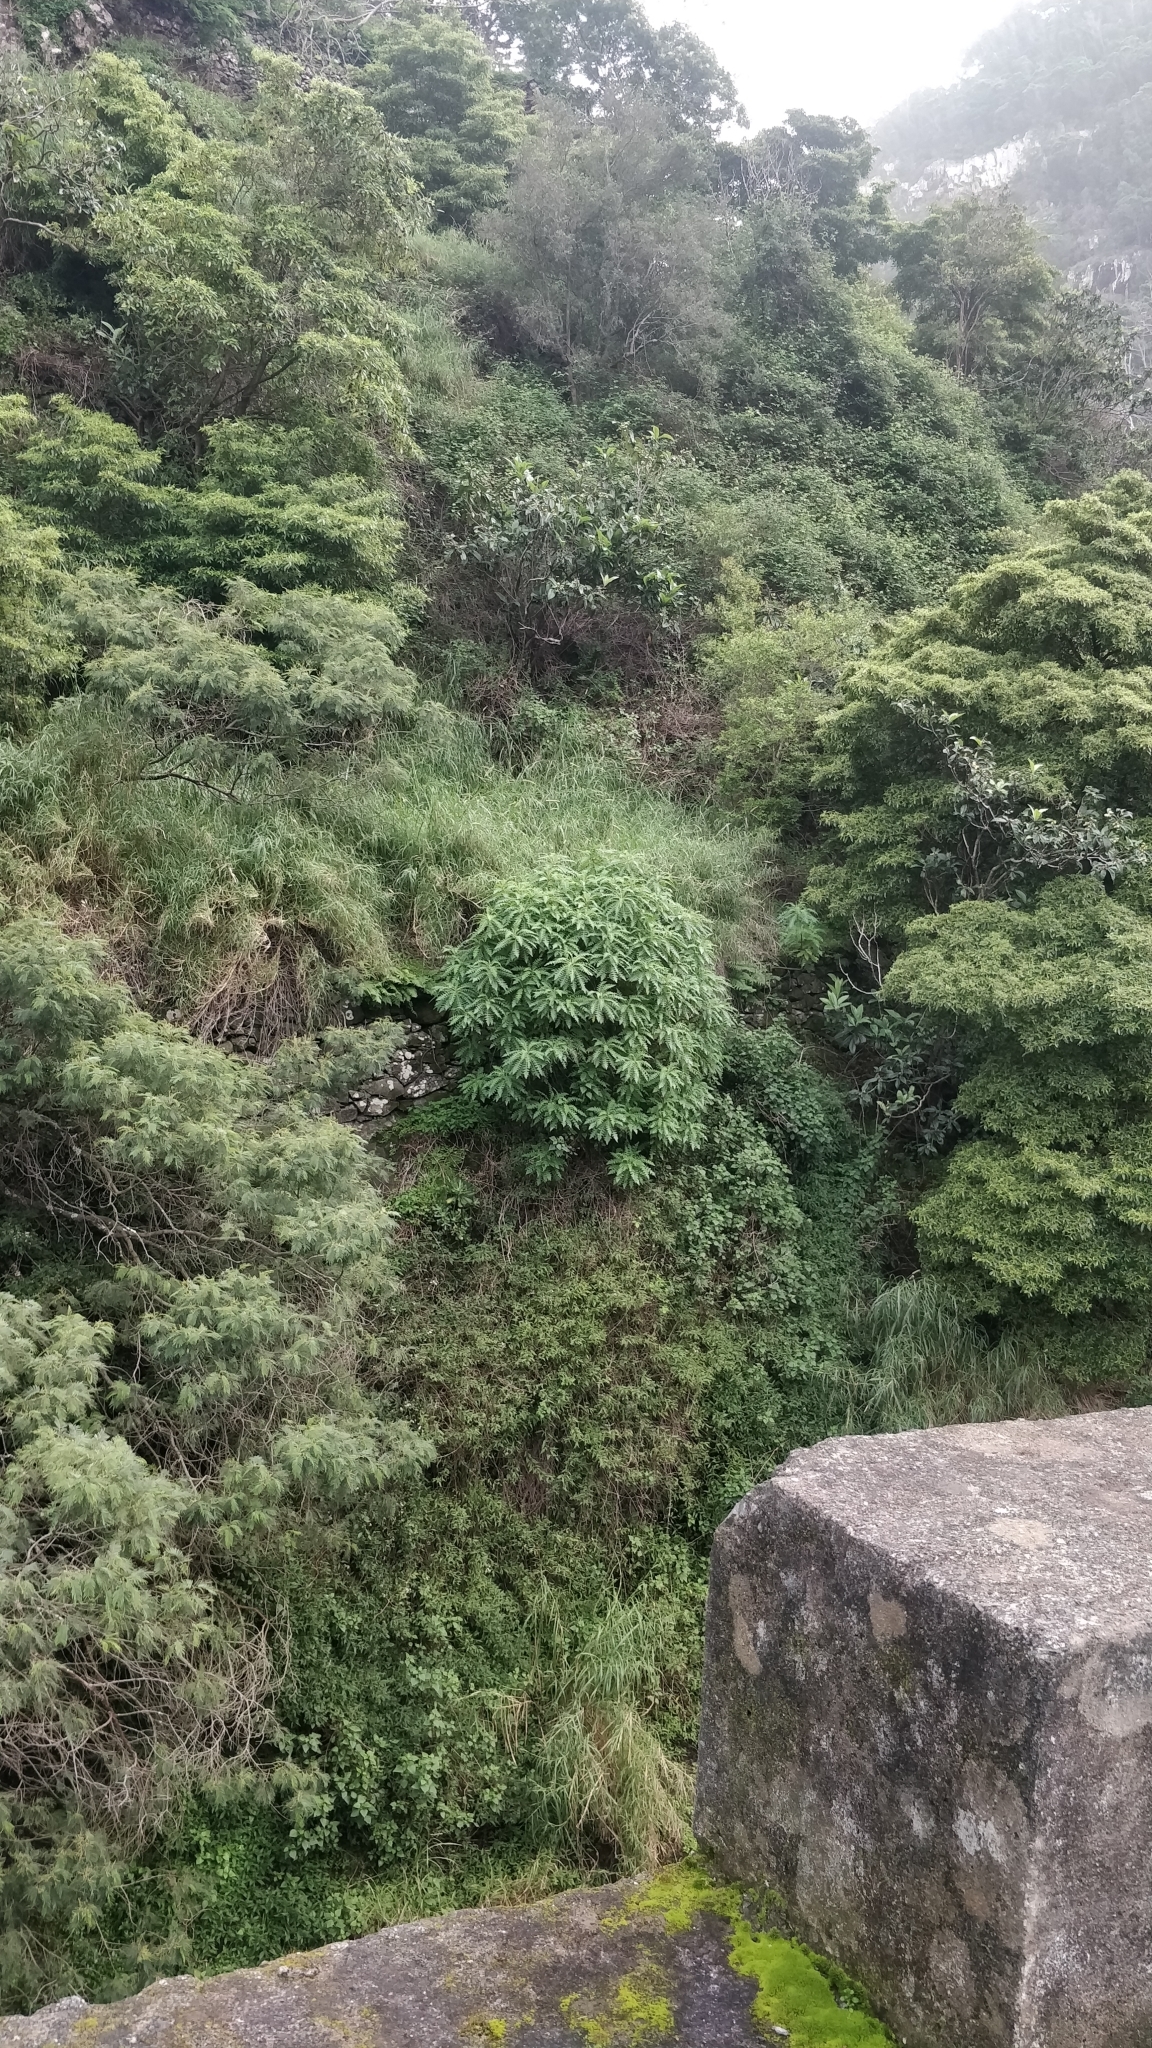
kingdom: Plantae
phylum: Tracheophyta
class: Magnoliopsida
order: Asterales
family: Asteraceae
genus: Sonchus
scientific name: Sonchus pinnatus
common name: Wing-leaved sow-thistle
